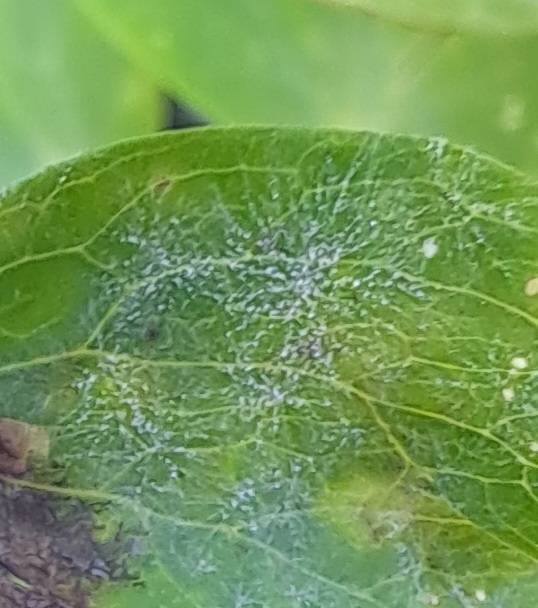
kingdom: Fungi
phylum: Ascomycota
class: Leotiomycetes
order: Helotiales
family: Erysiphaceae
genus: Erysiphe
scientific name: Erysiphe aquilegiae
